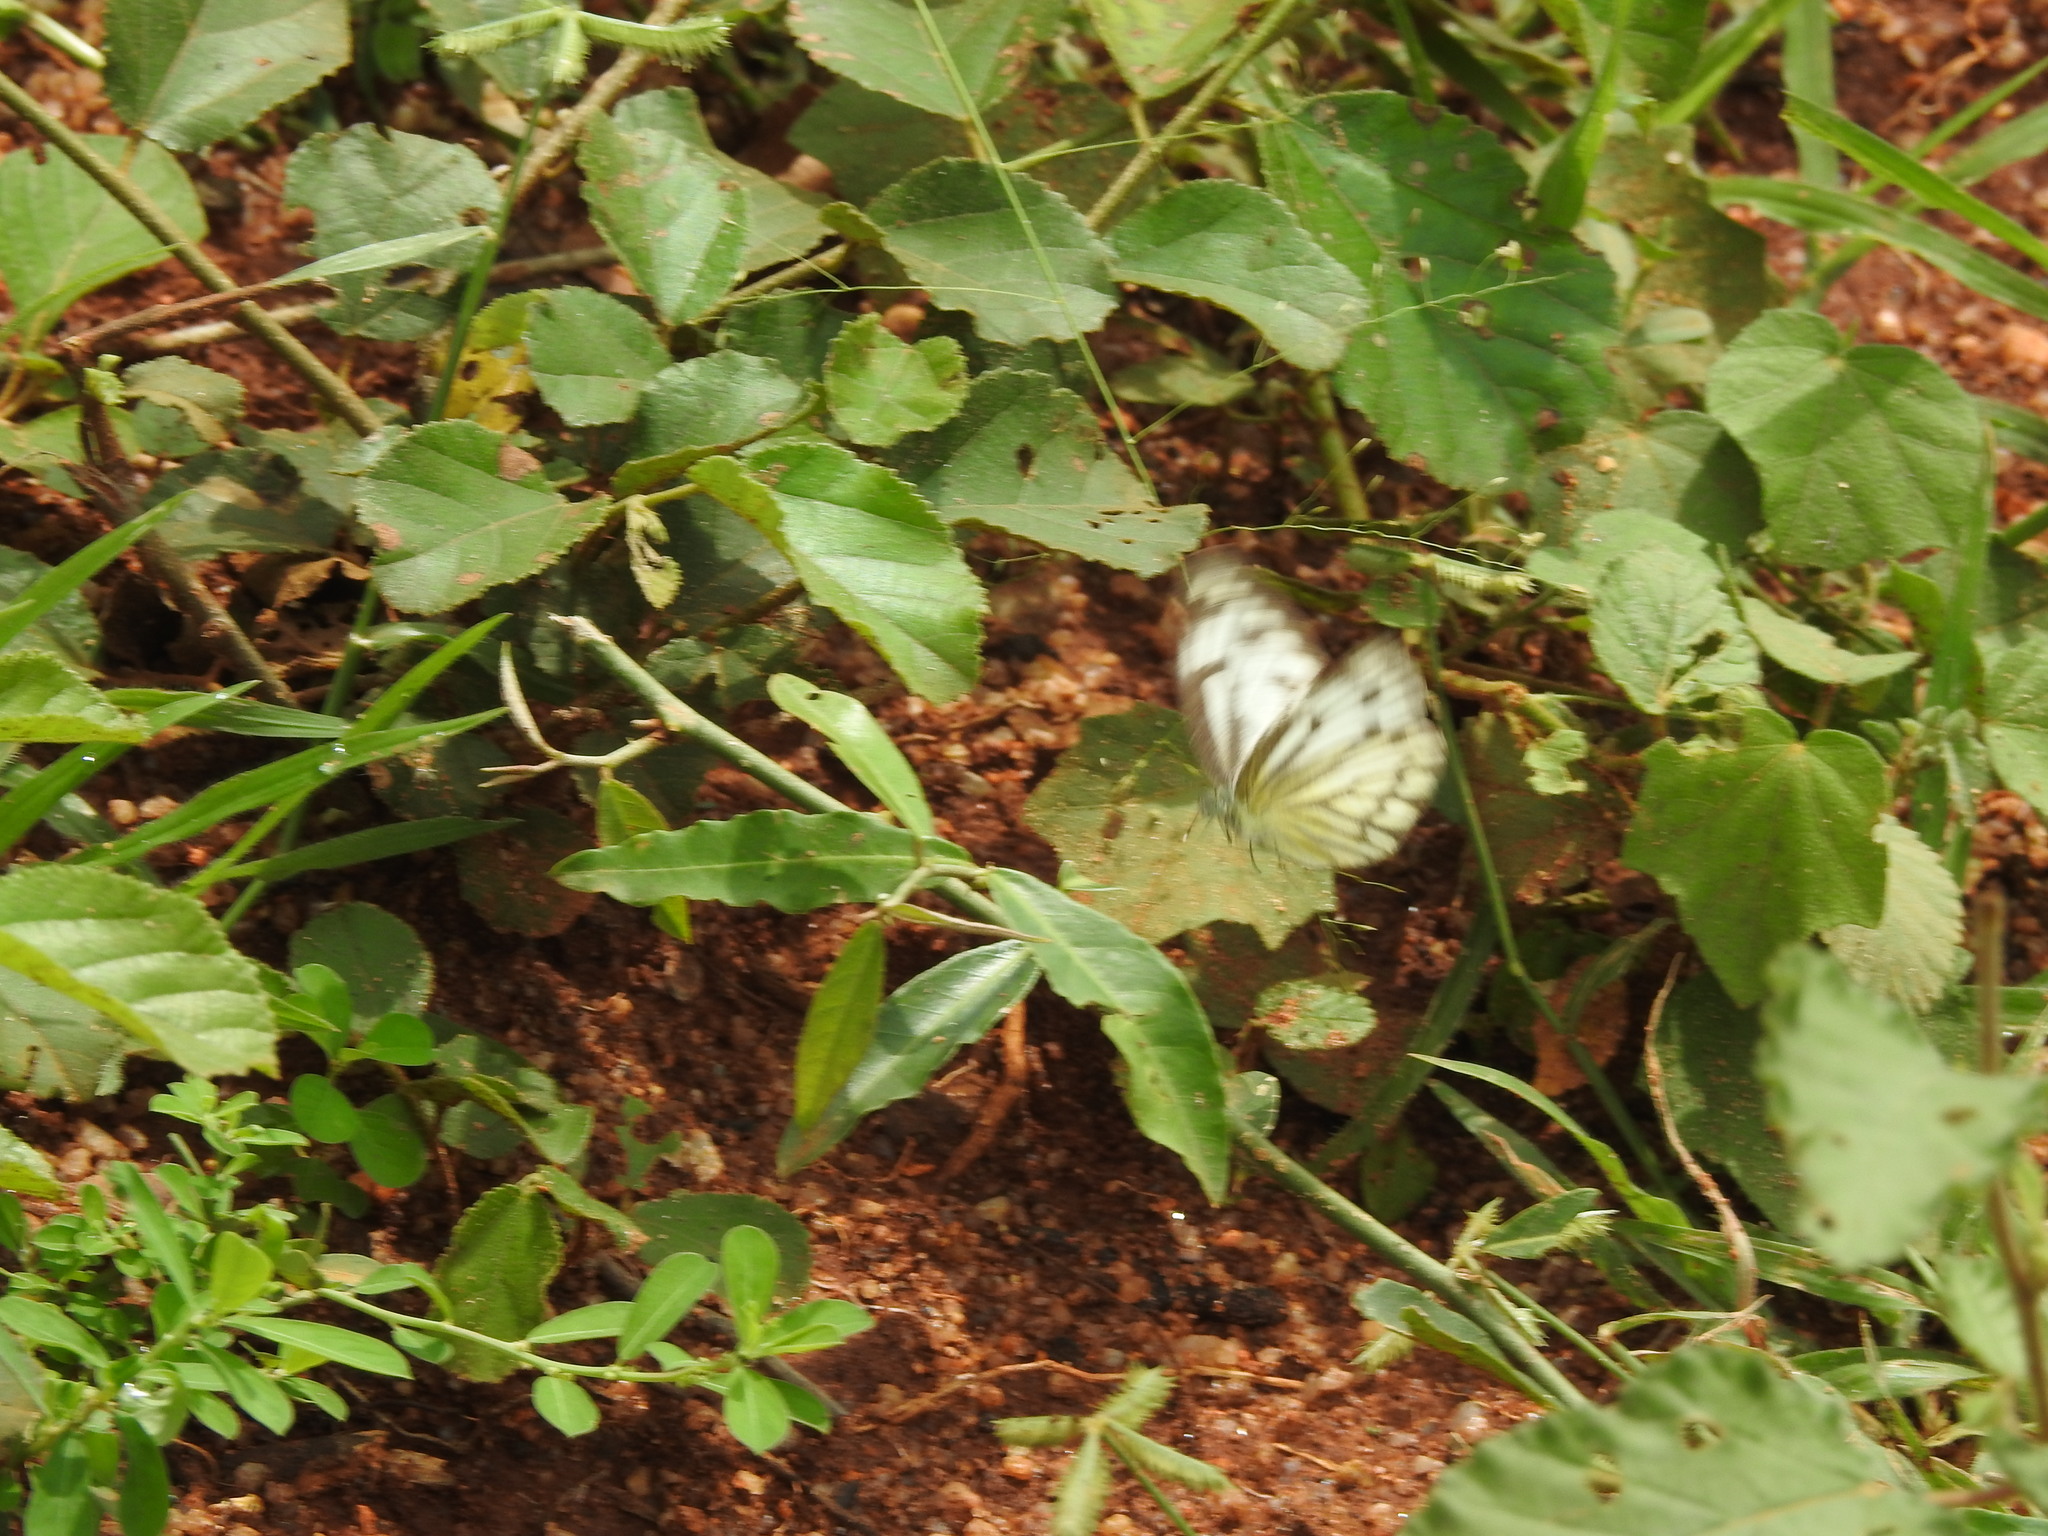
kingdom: Animalia
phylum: Arthropoda
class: Insecta
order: Lepidoptera
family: Pieridae
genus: Cepora
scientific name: Cepora nerissa
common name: Common gull
